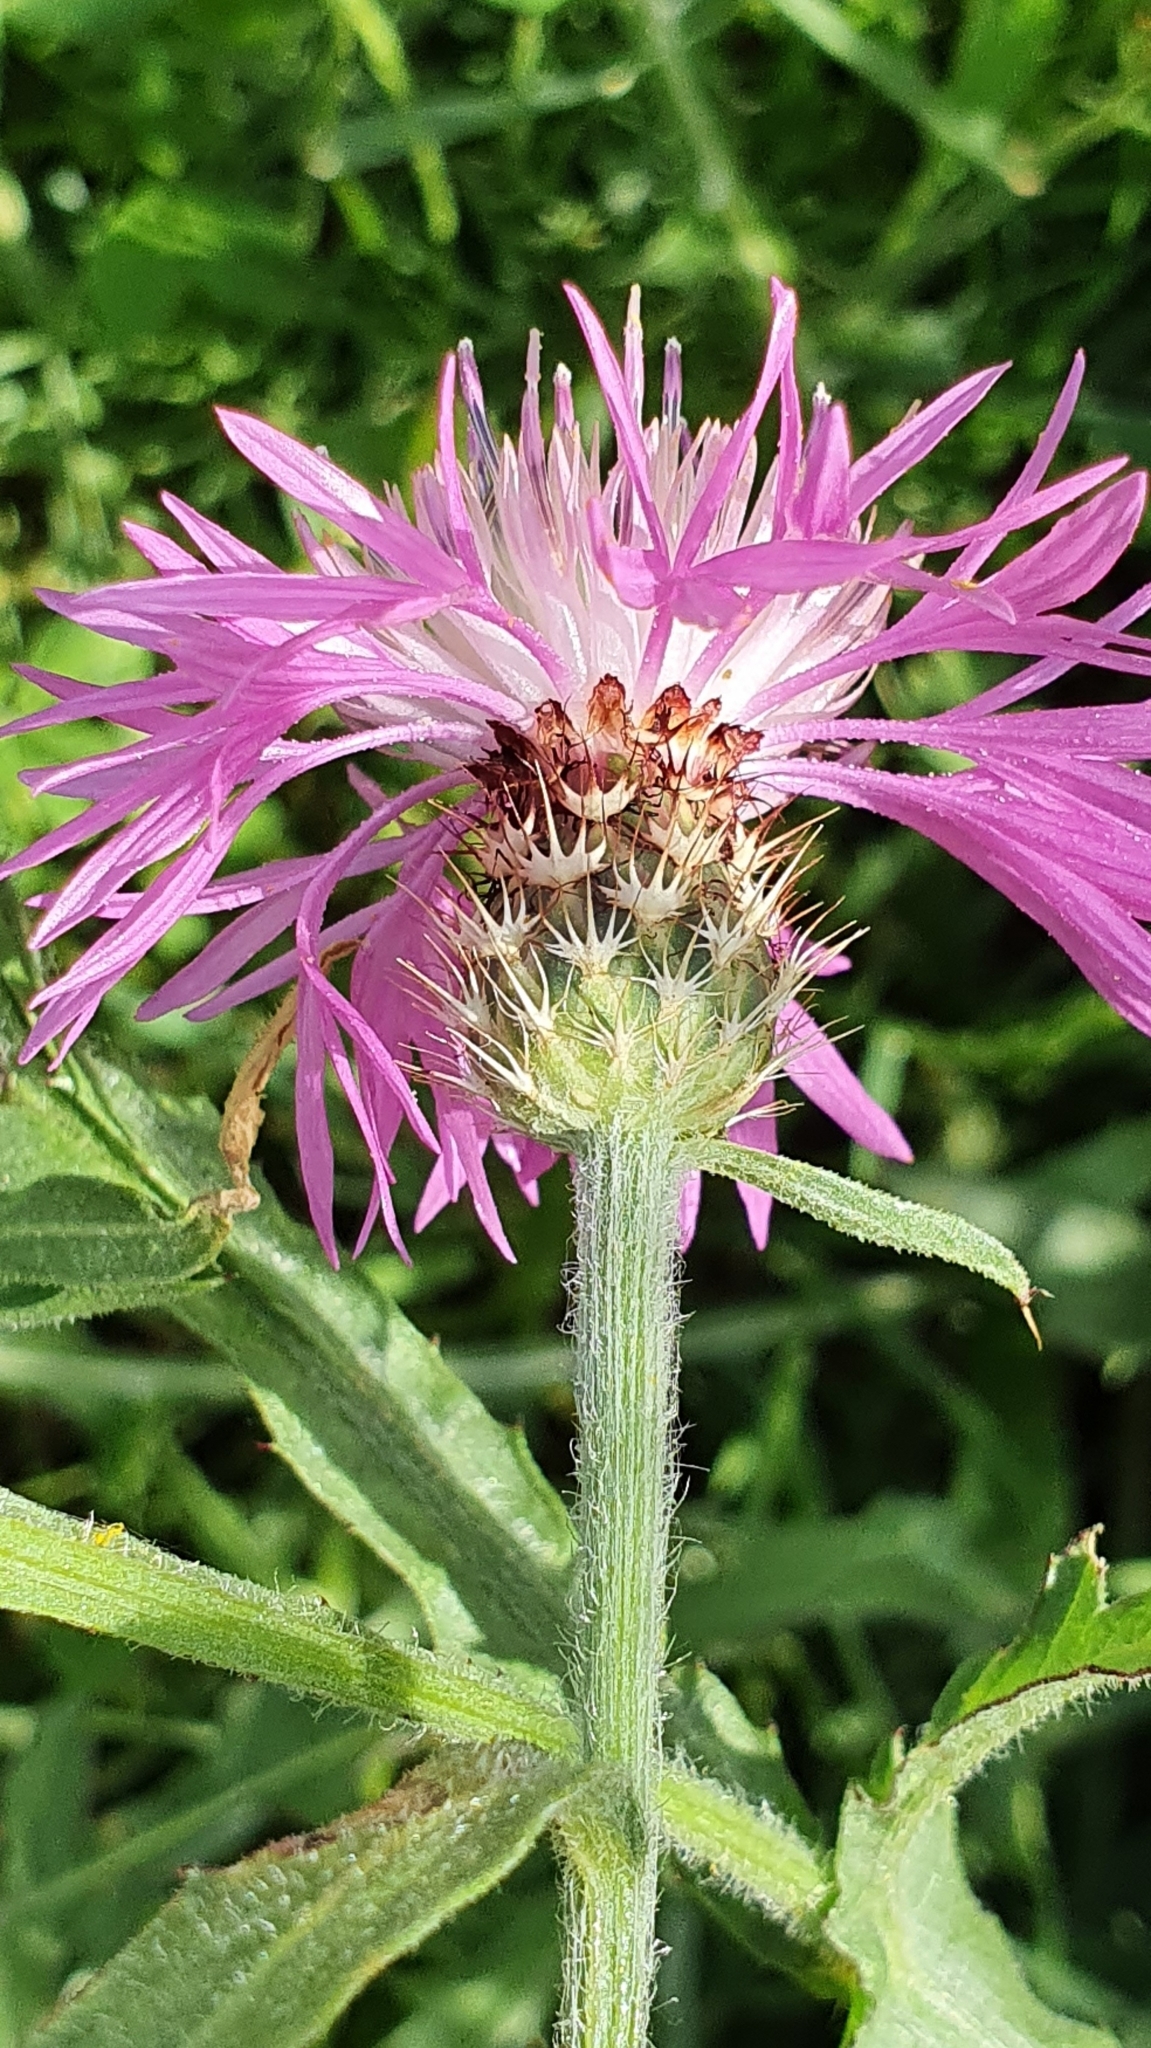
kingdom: Plantae
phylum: Tracheophyta
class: Magnoliopsida
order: Asterales
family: Asteraceae
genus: Centaurea
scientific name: Centaurea napifolia
